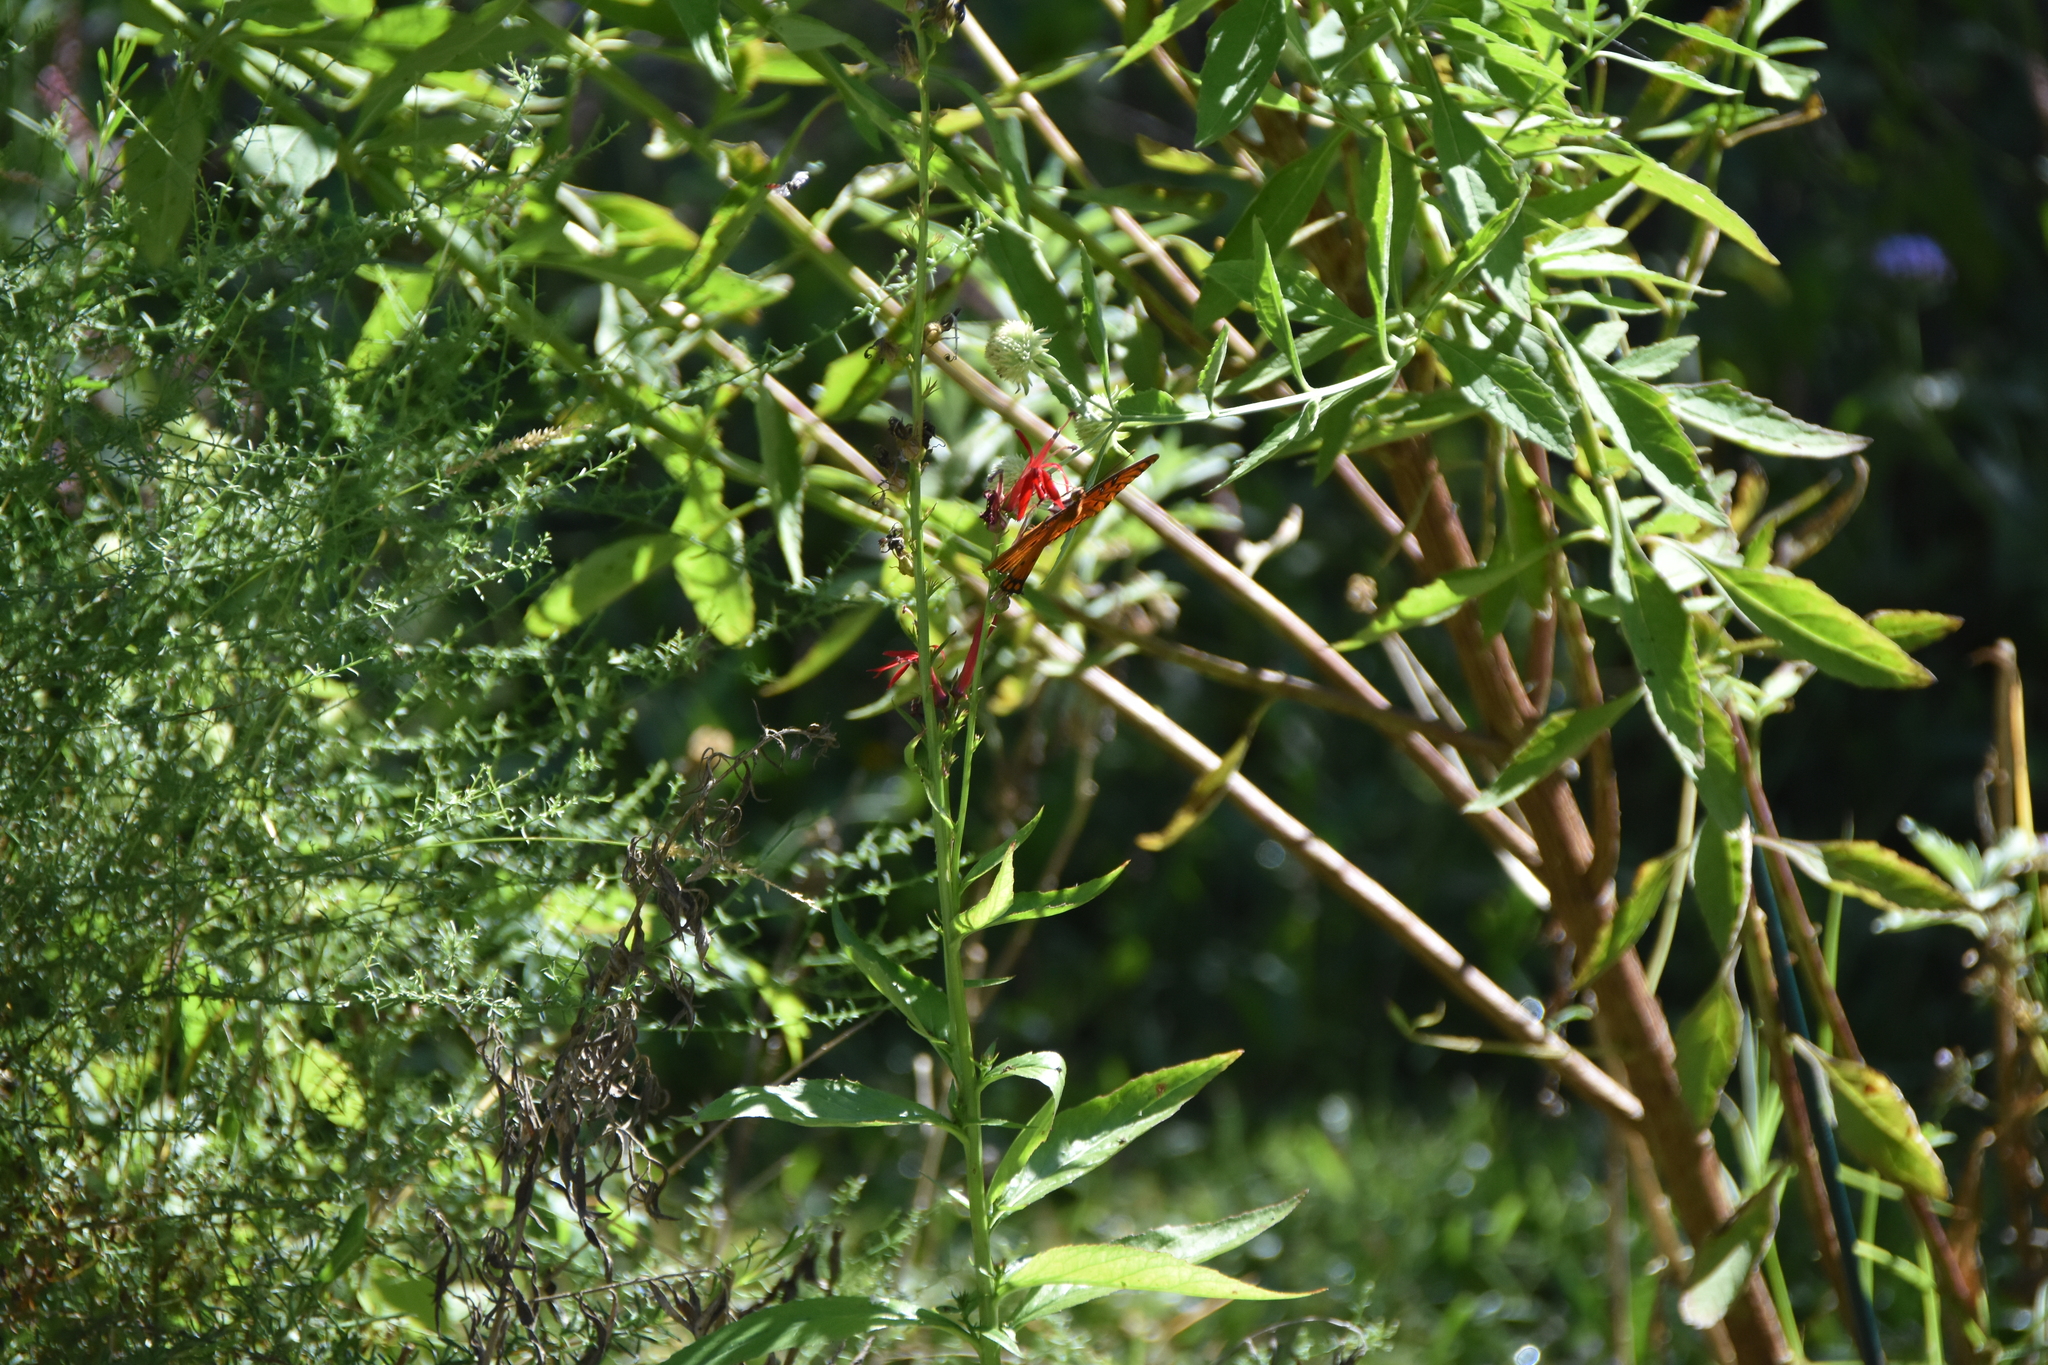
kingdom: Animalia
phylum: Arthropoda
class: Insecta
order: Lepidoptera
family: Nymphalidae
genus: Dione
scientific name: Dione vanillae
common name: Gulf fritillary
